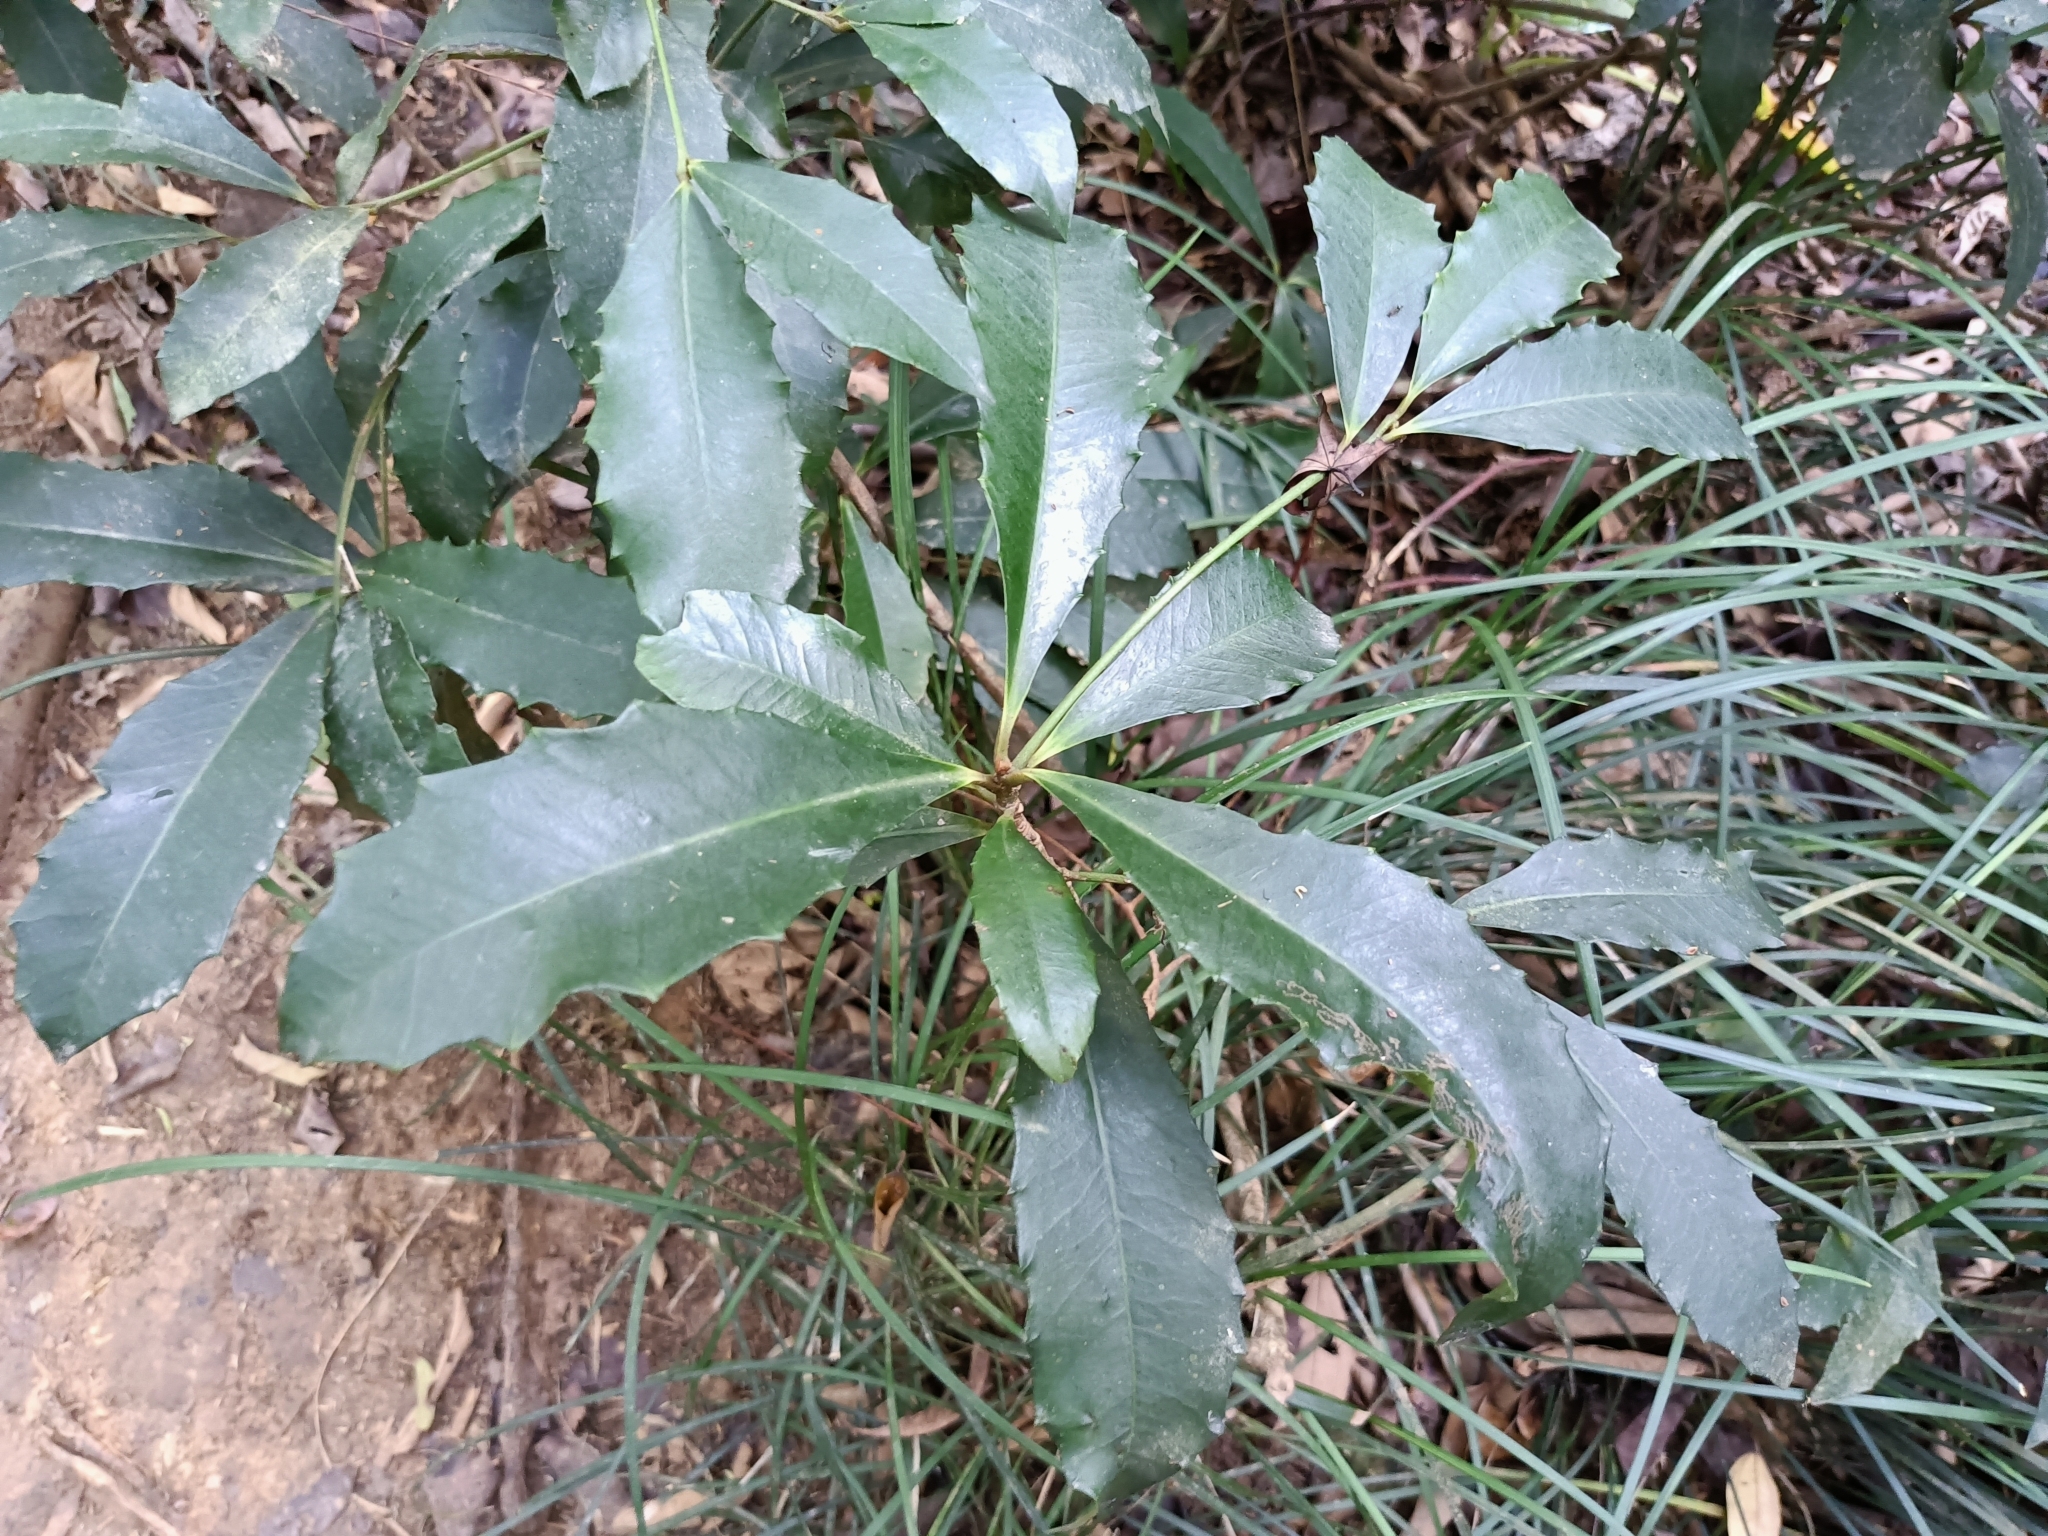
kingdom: Plantae
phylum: Tracheophyta
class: Magnoliopsida
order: Ericales
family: Primulaceae
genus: Ardisia
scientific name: Ardisia cornudentata
